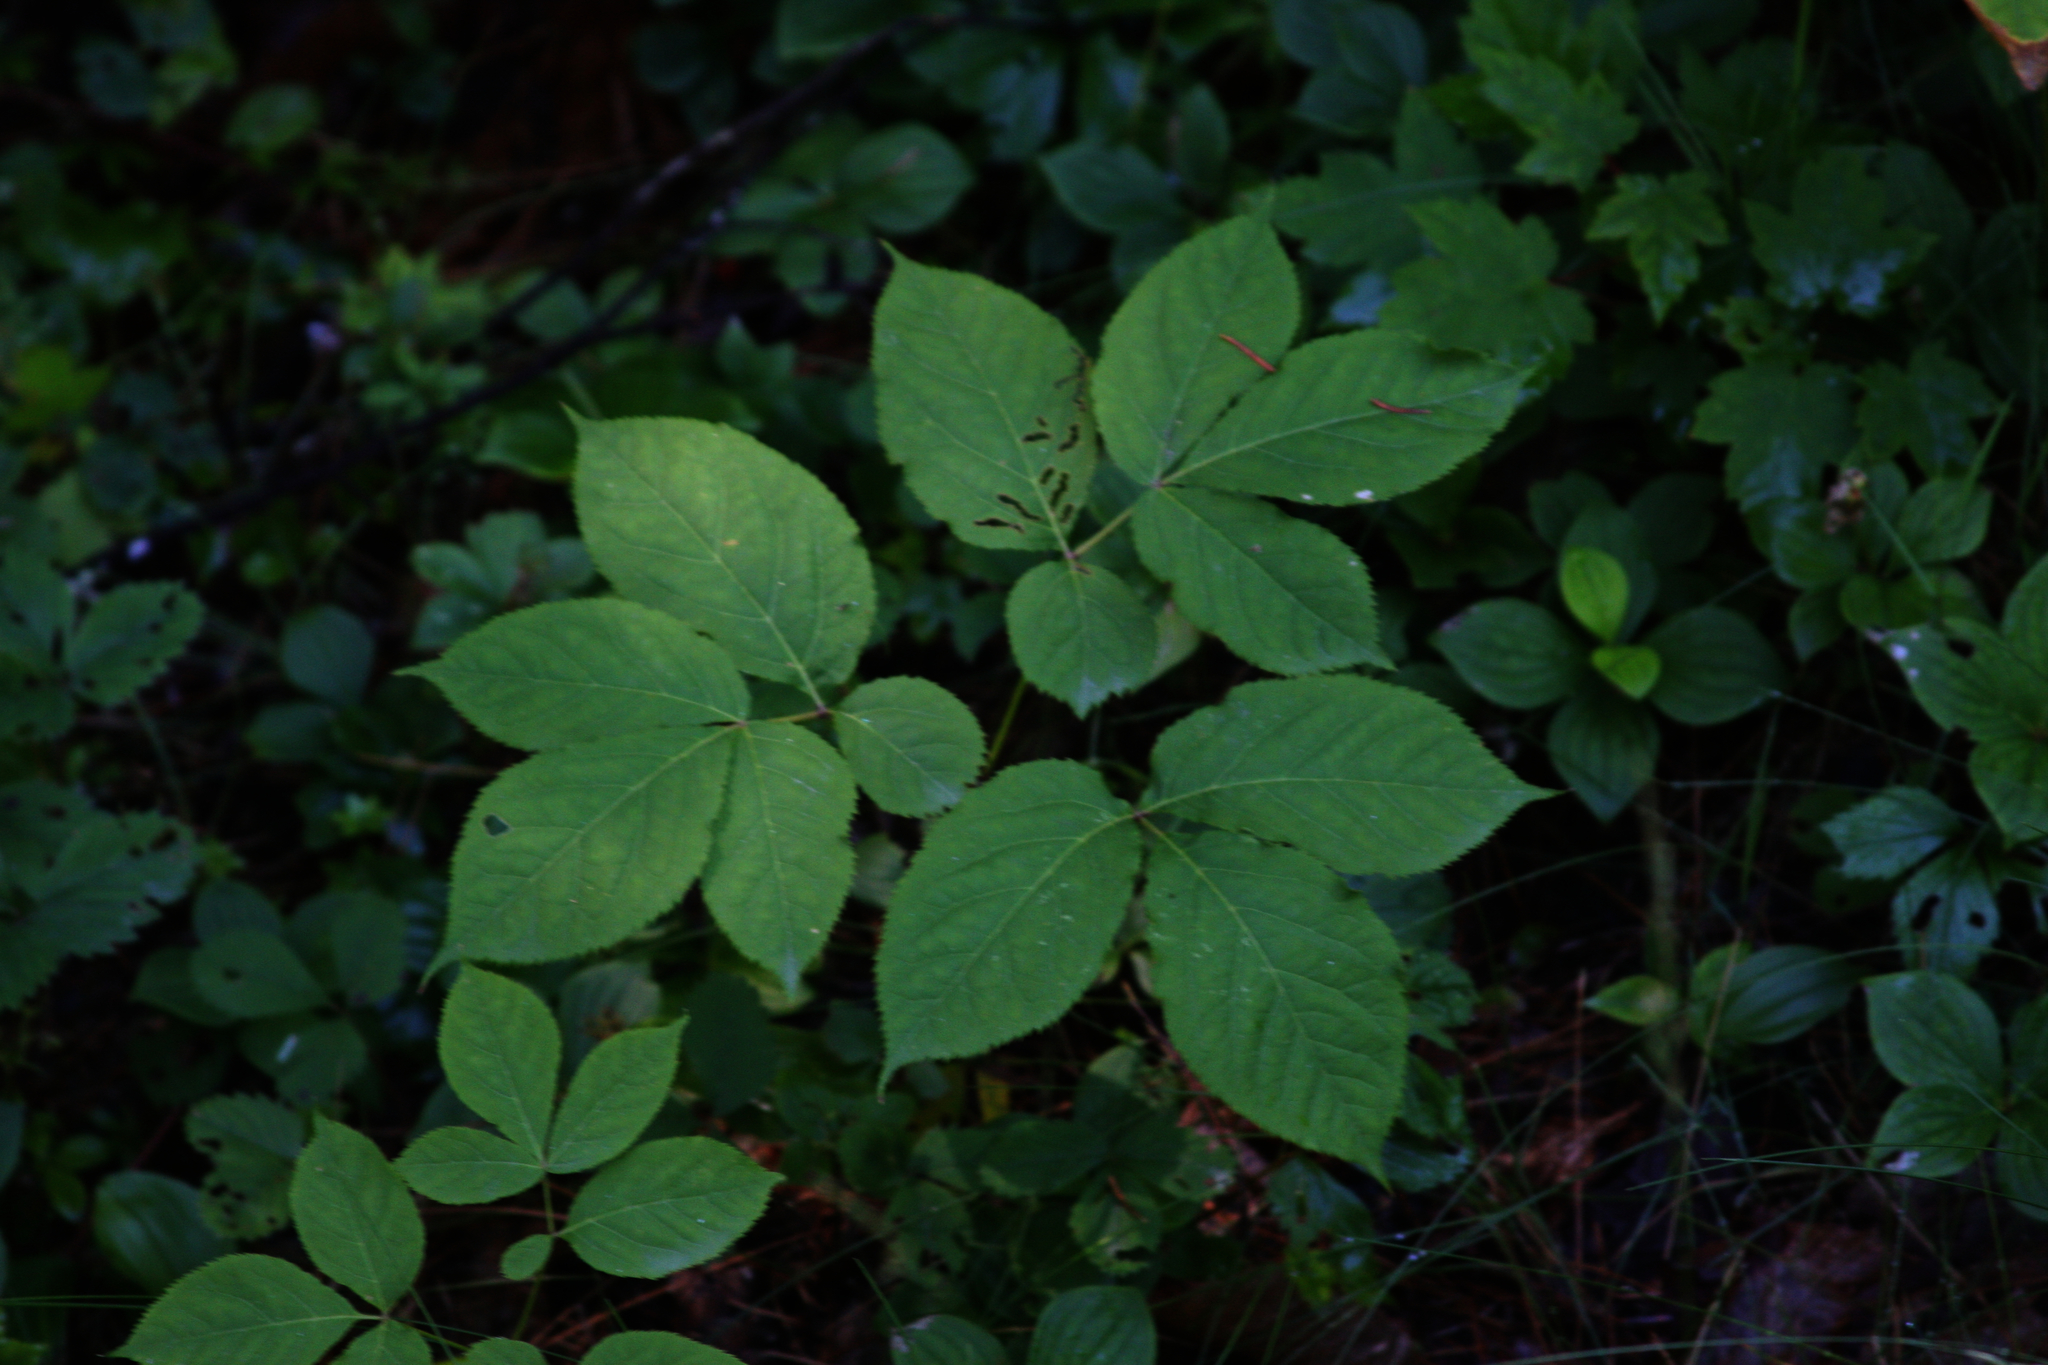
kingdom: Plantae
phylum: Tracheophyta
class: Magnoliopsida
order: Apiales
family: Araliaceae
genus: Aralia
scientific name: Aralia nudicaulis
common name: Wild sarsaparilla
